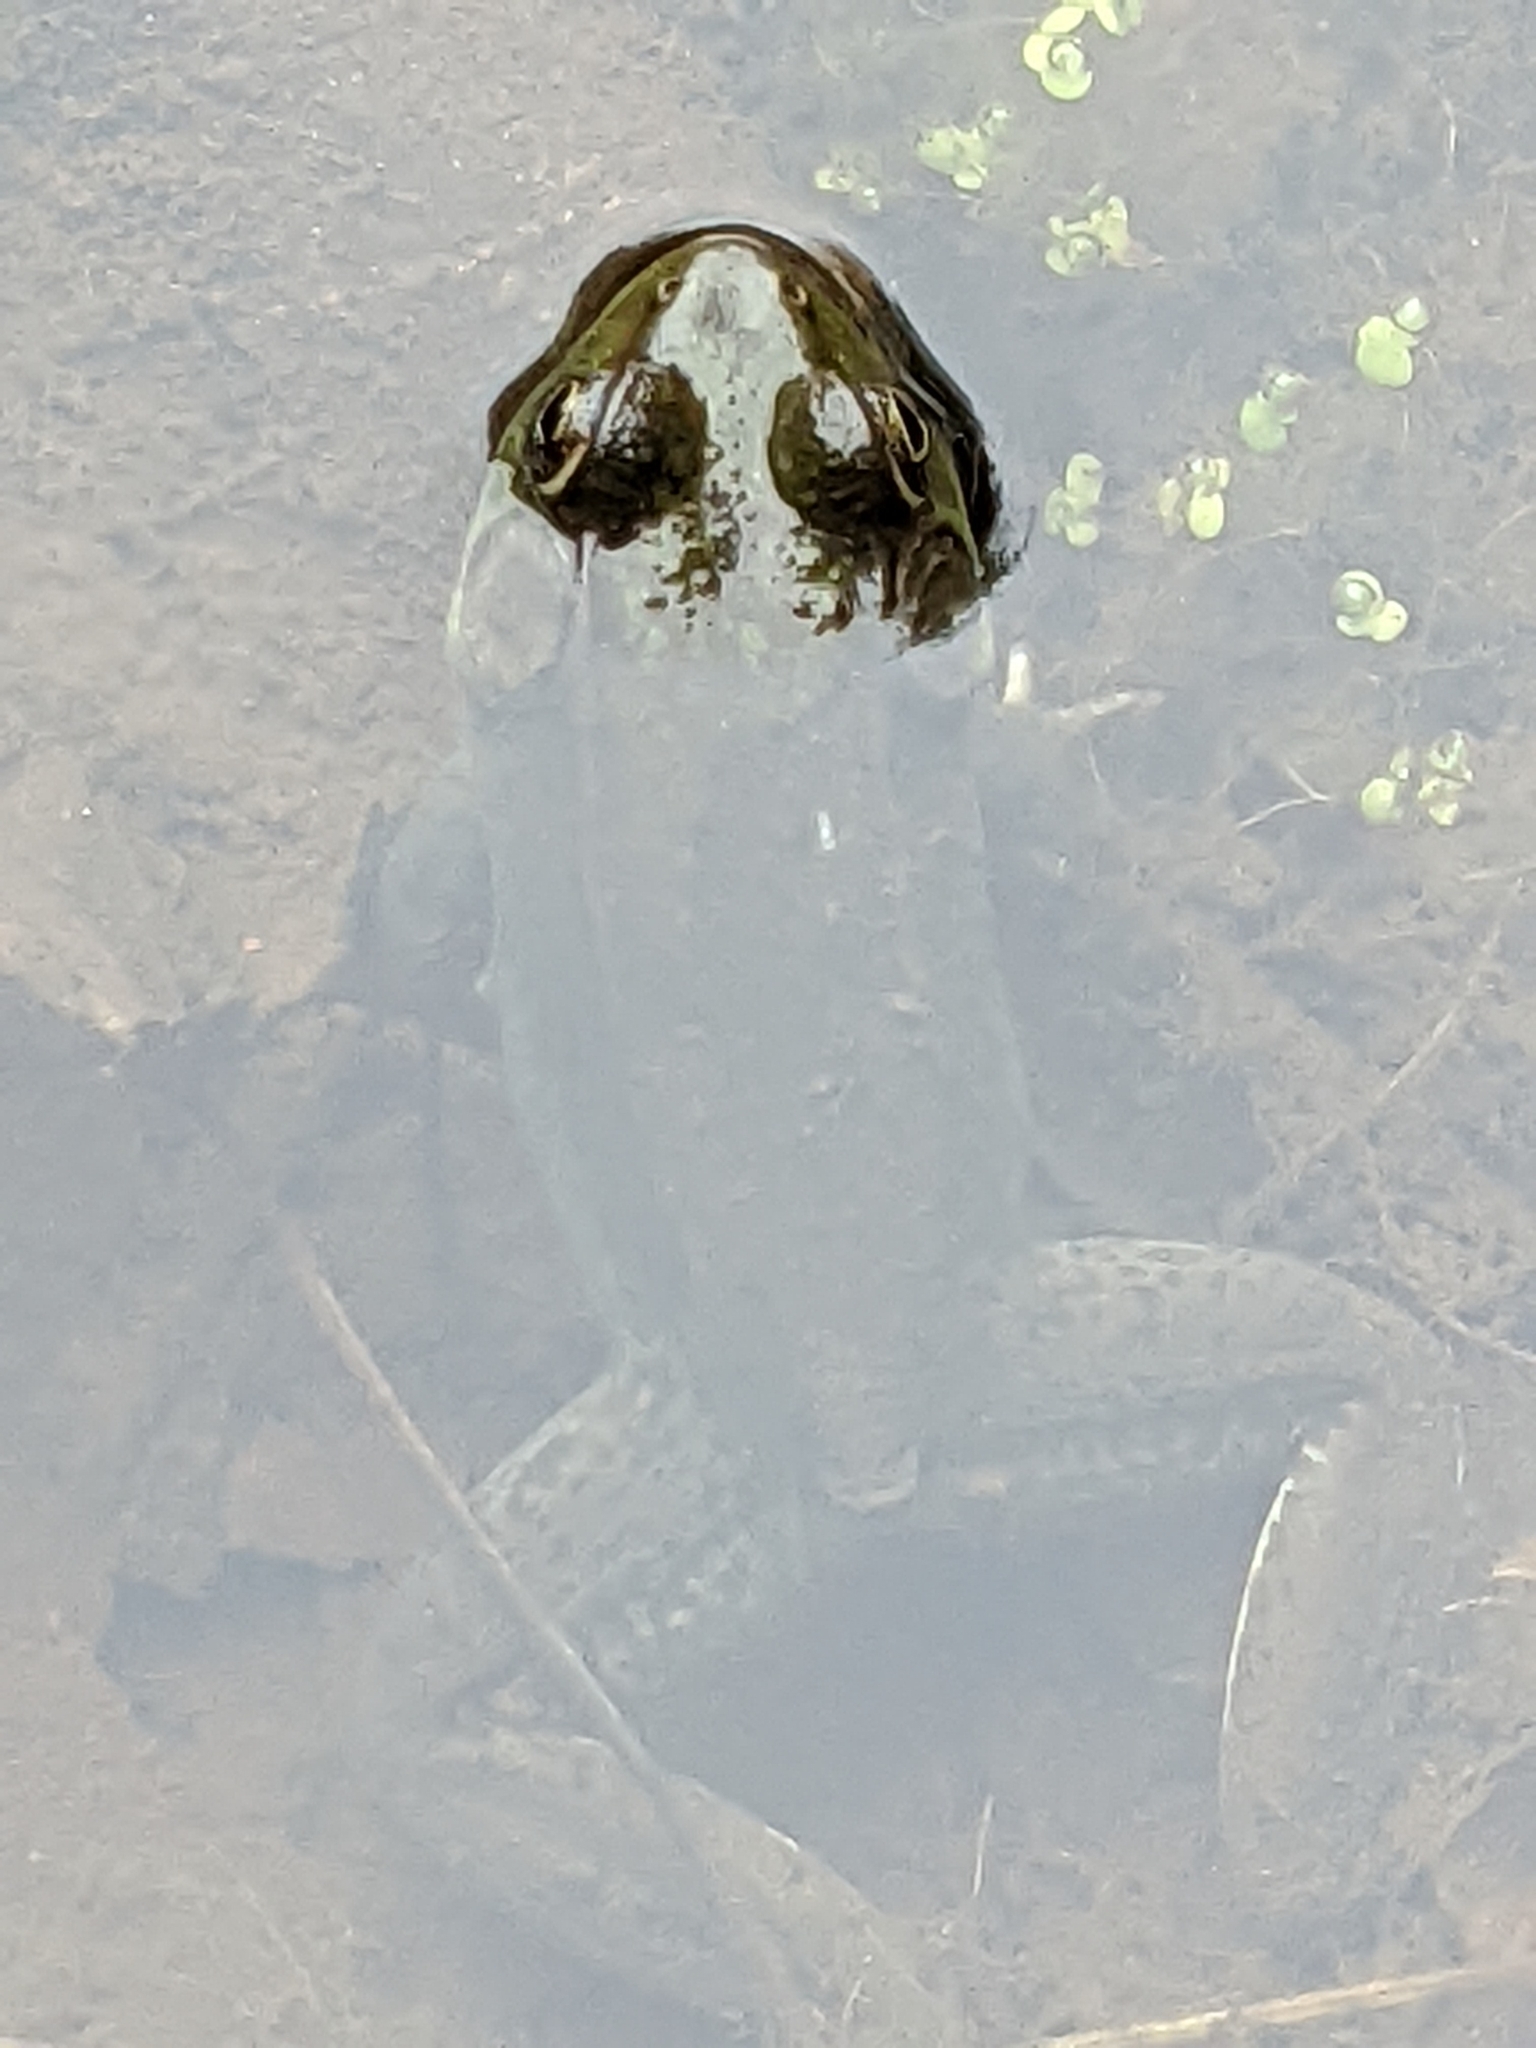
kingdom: Animalia
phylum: Chordata
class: Amphibia
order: Anura
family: Ranidae
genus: Lithobates
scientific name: Lithobates clamitans
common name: Green frog
